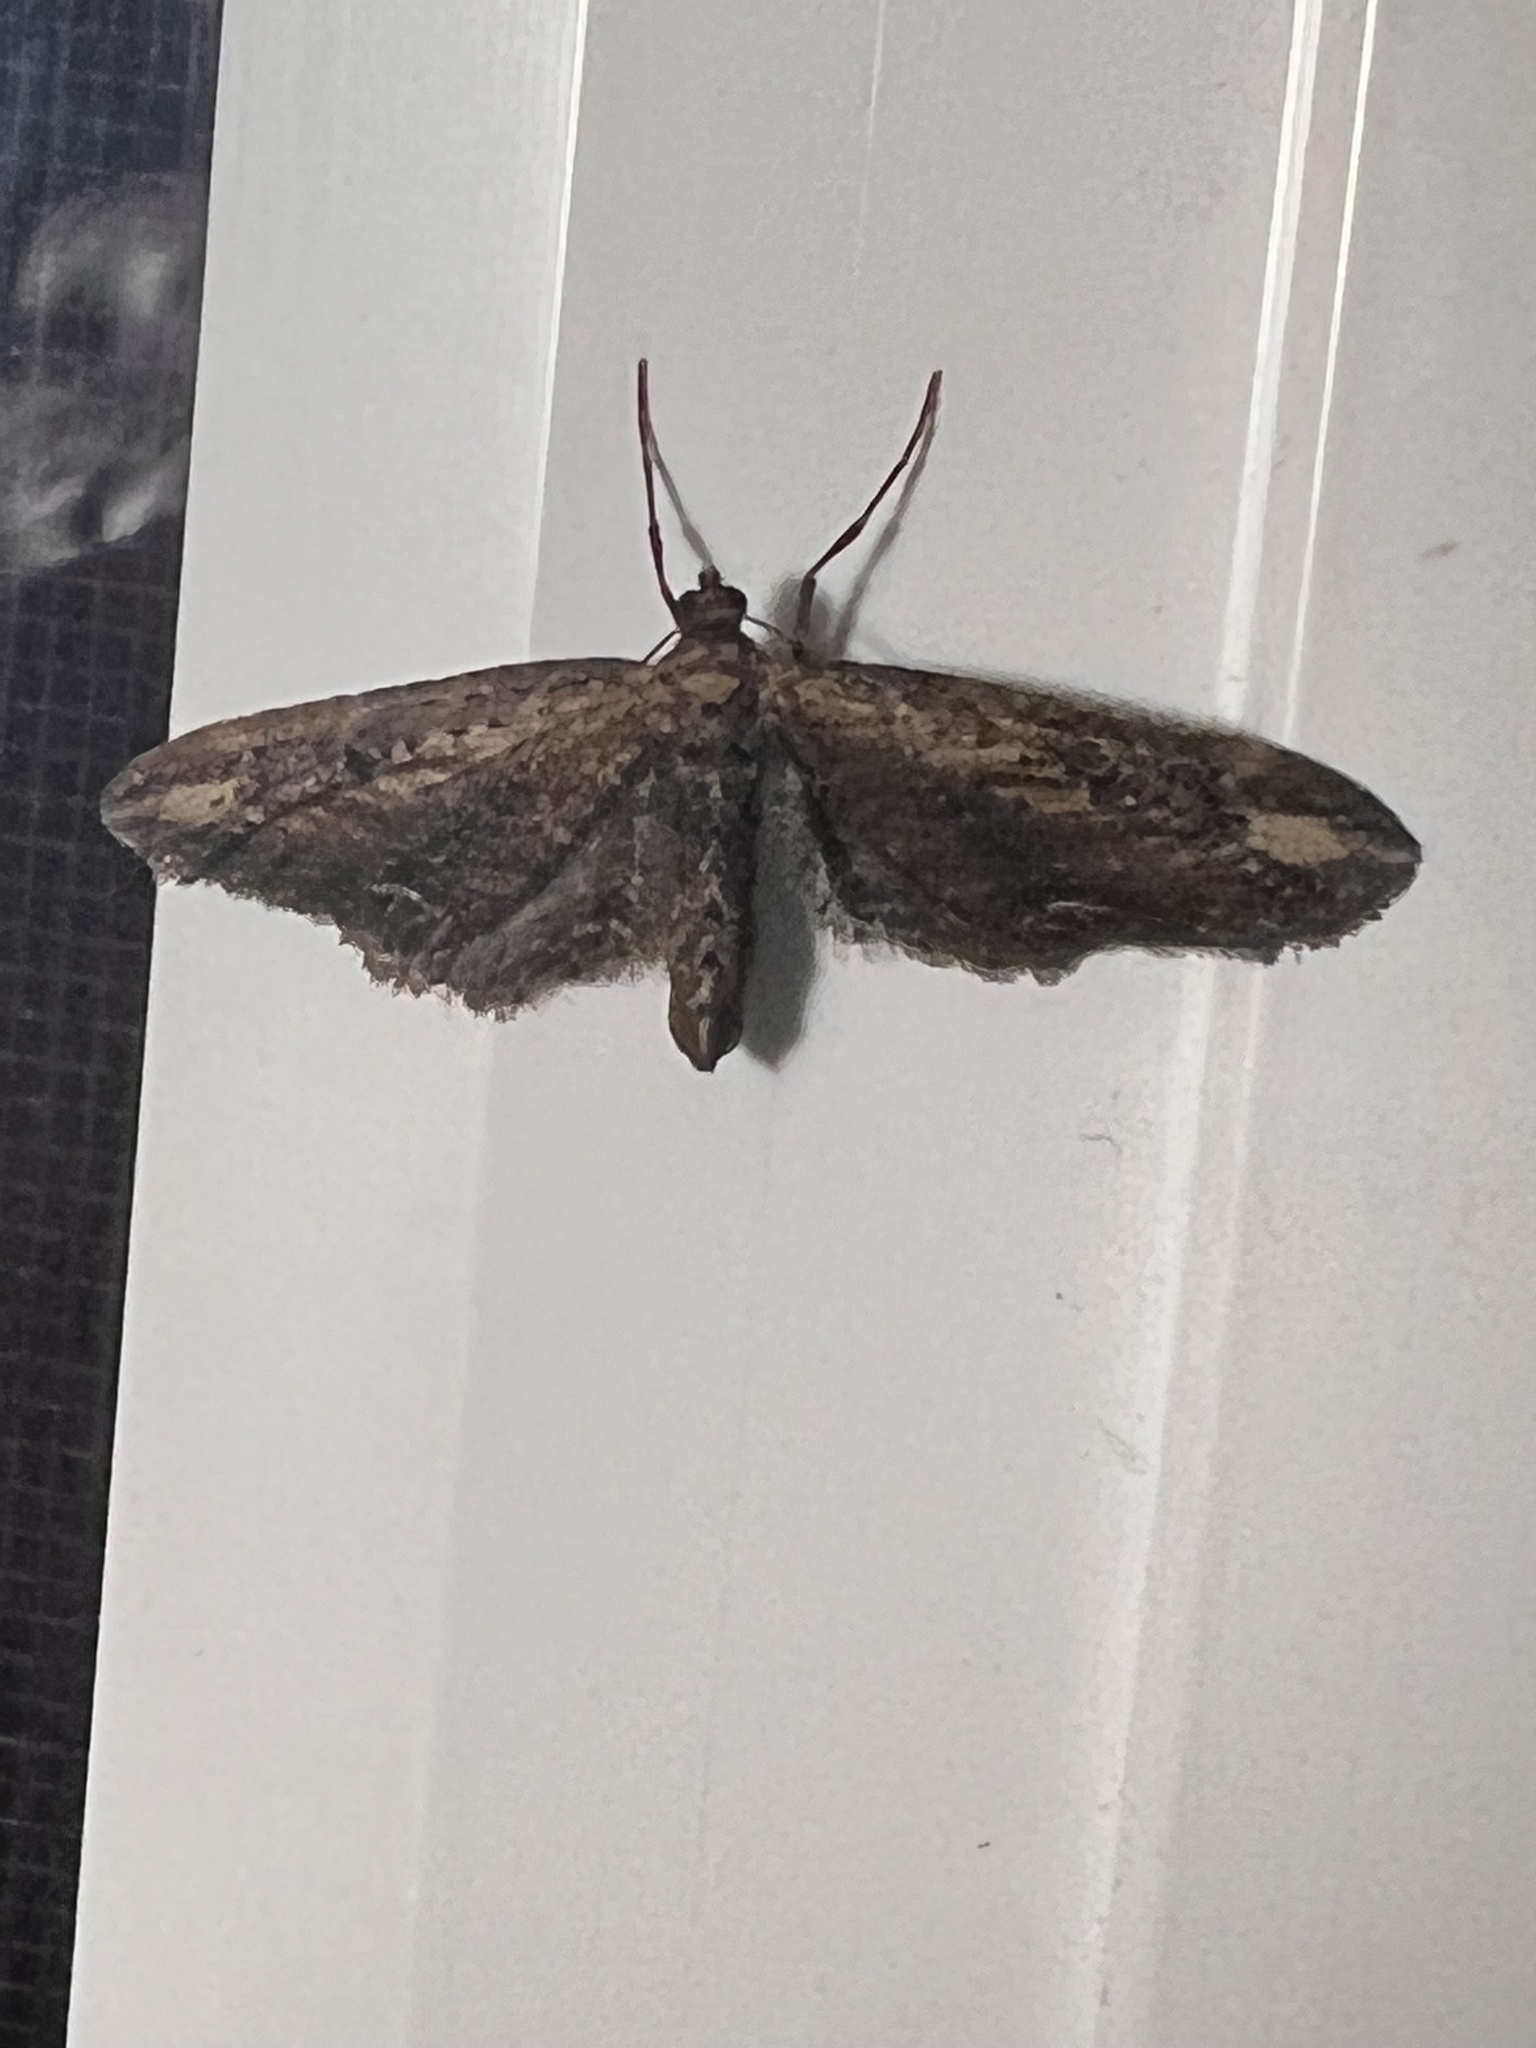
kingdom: Animalia
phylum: Arthropoda
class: Insecta
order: Lepidoptera
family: Geometridae
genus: Eupithecia
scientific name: Eupithecia subapicata
